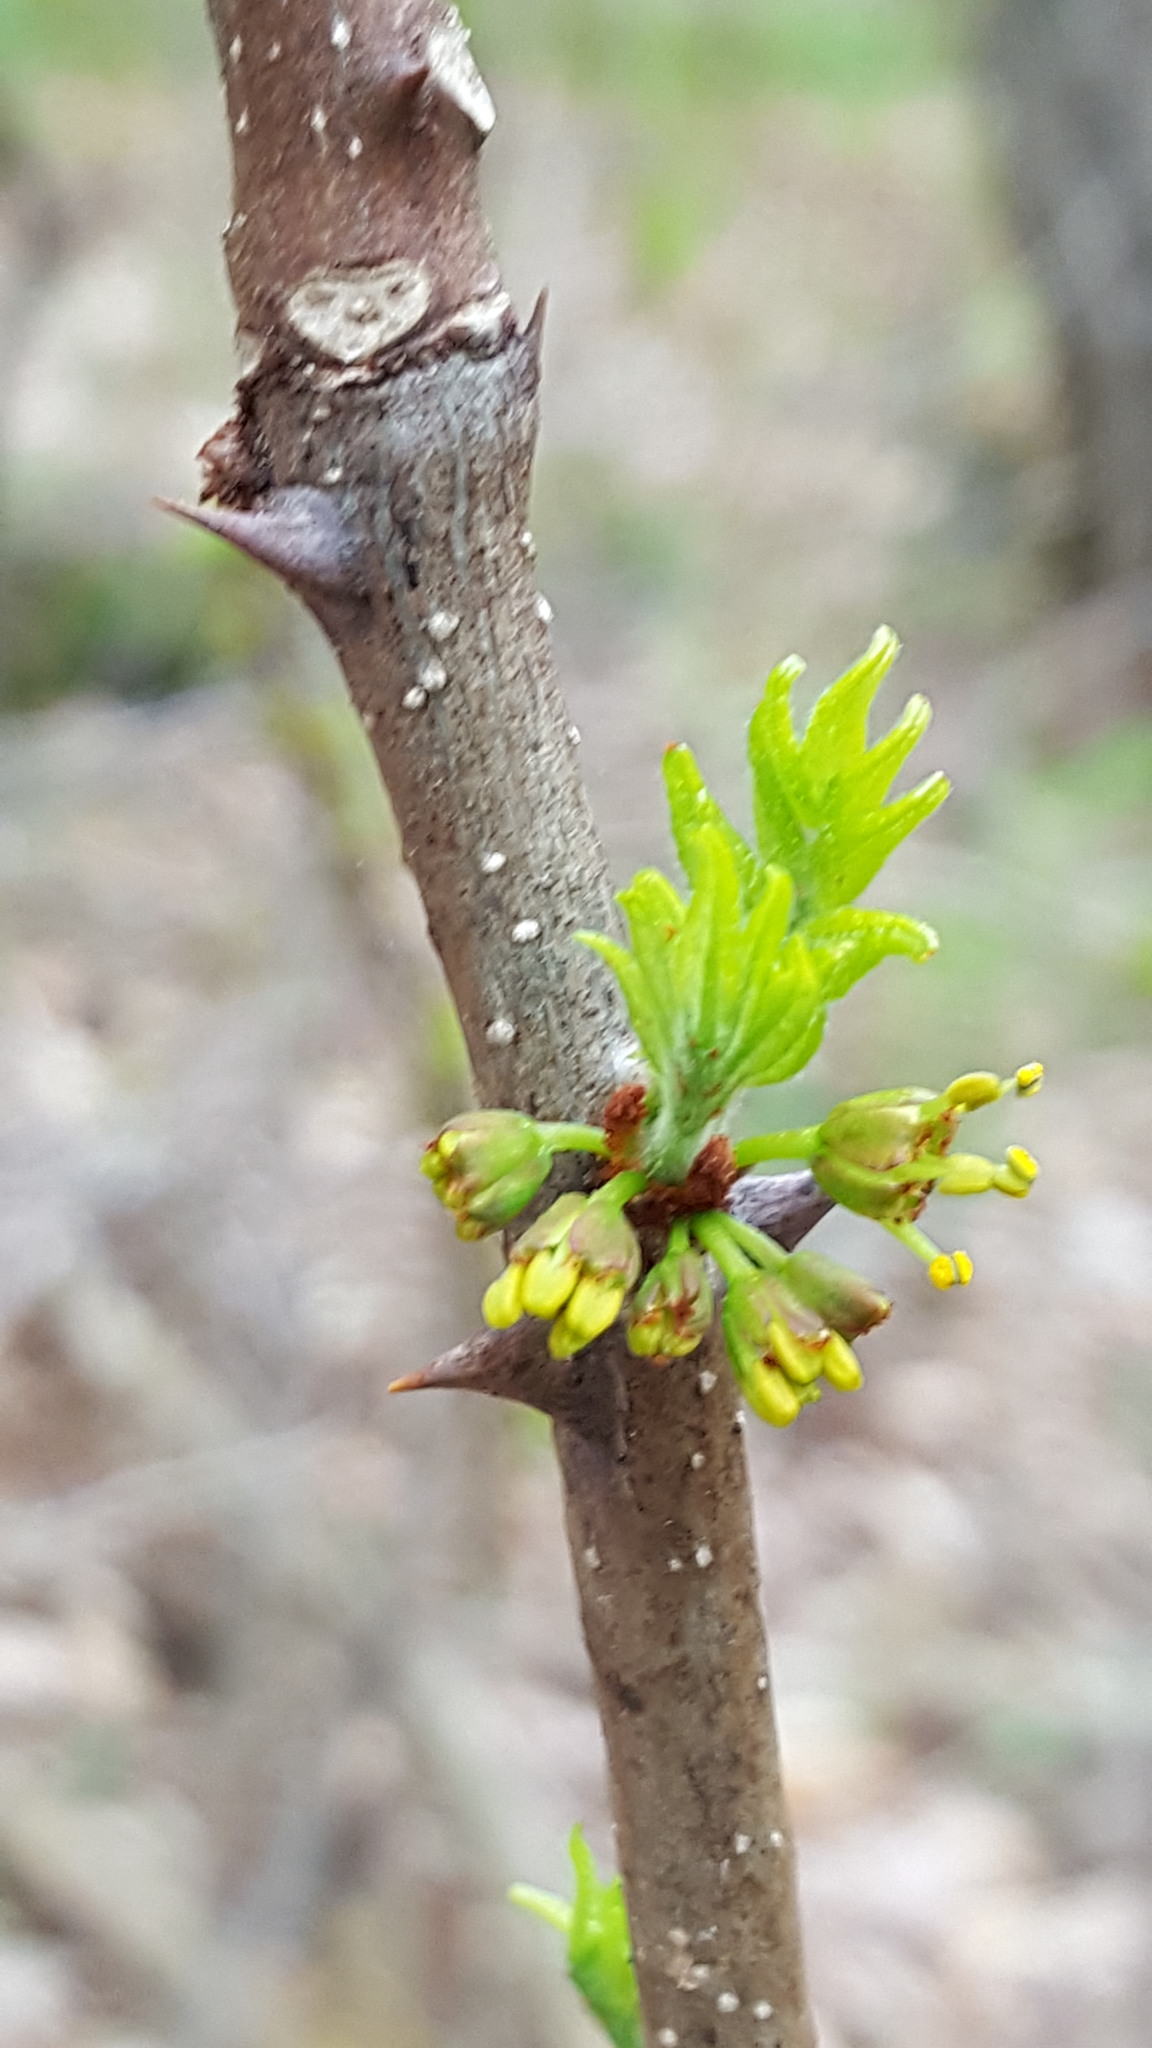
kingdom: Plantae
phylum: Tracheophyta
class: Magnoliopsida
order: Sapindales
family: Rutaceae
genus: Zanthoxylum
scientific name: Zanthoxylum americanum
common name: Northern prickly-ash
